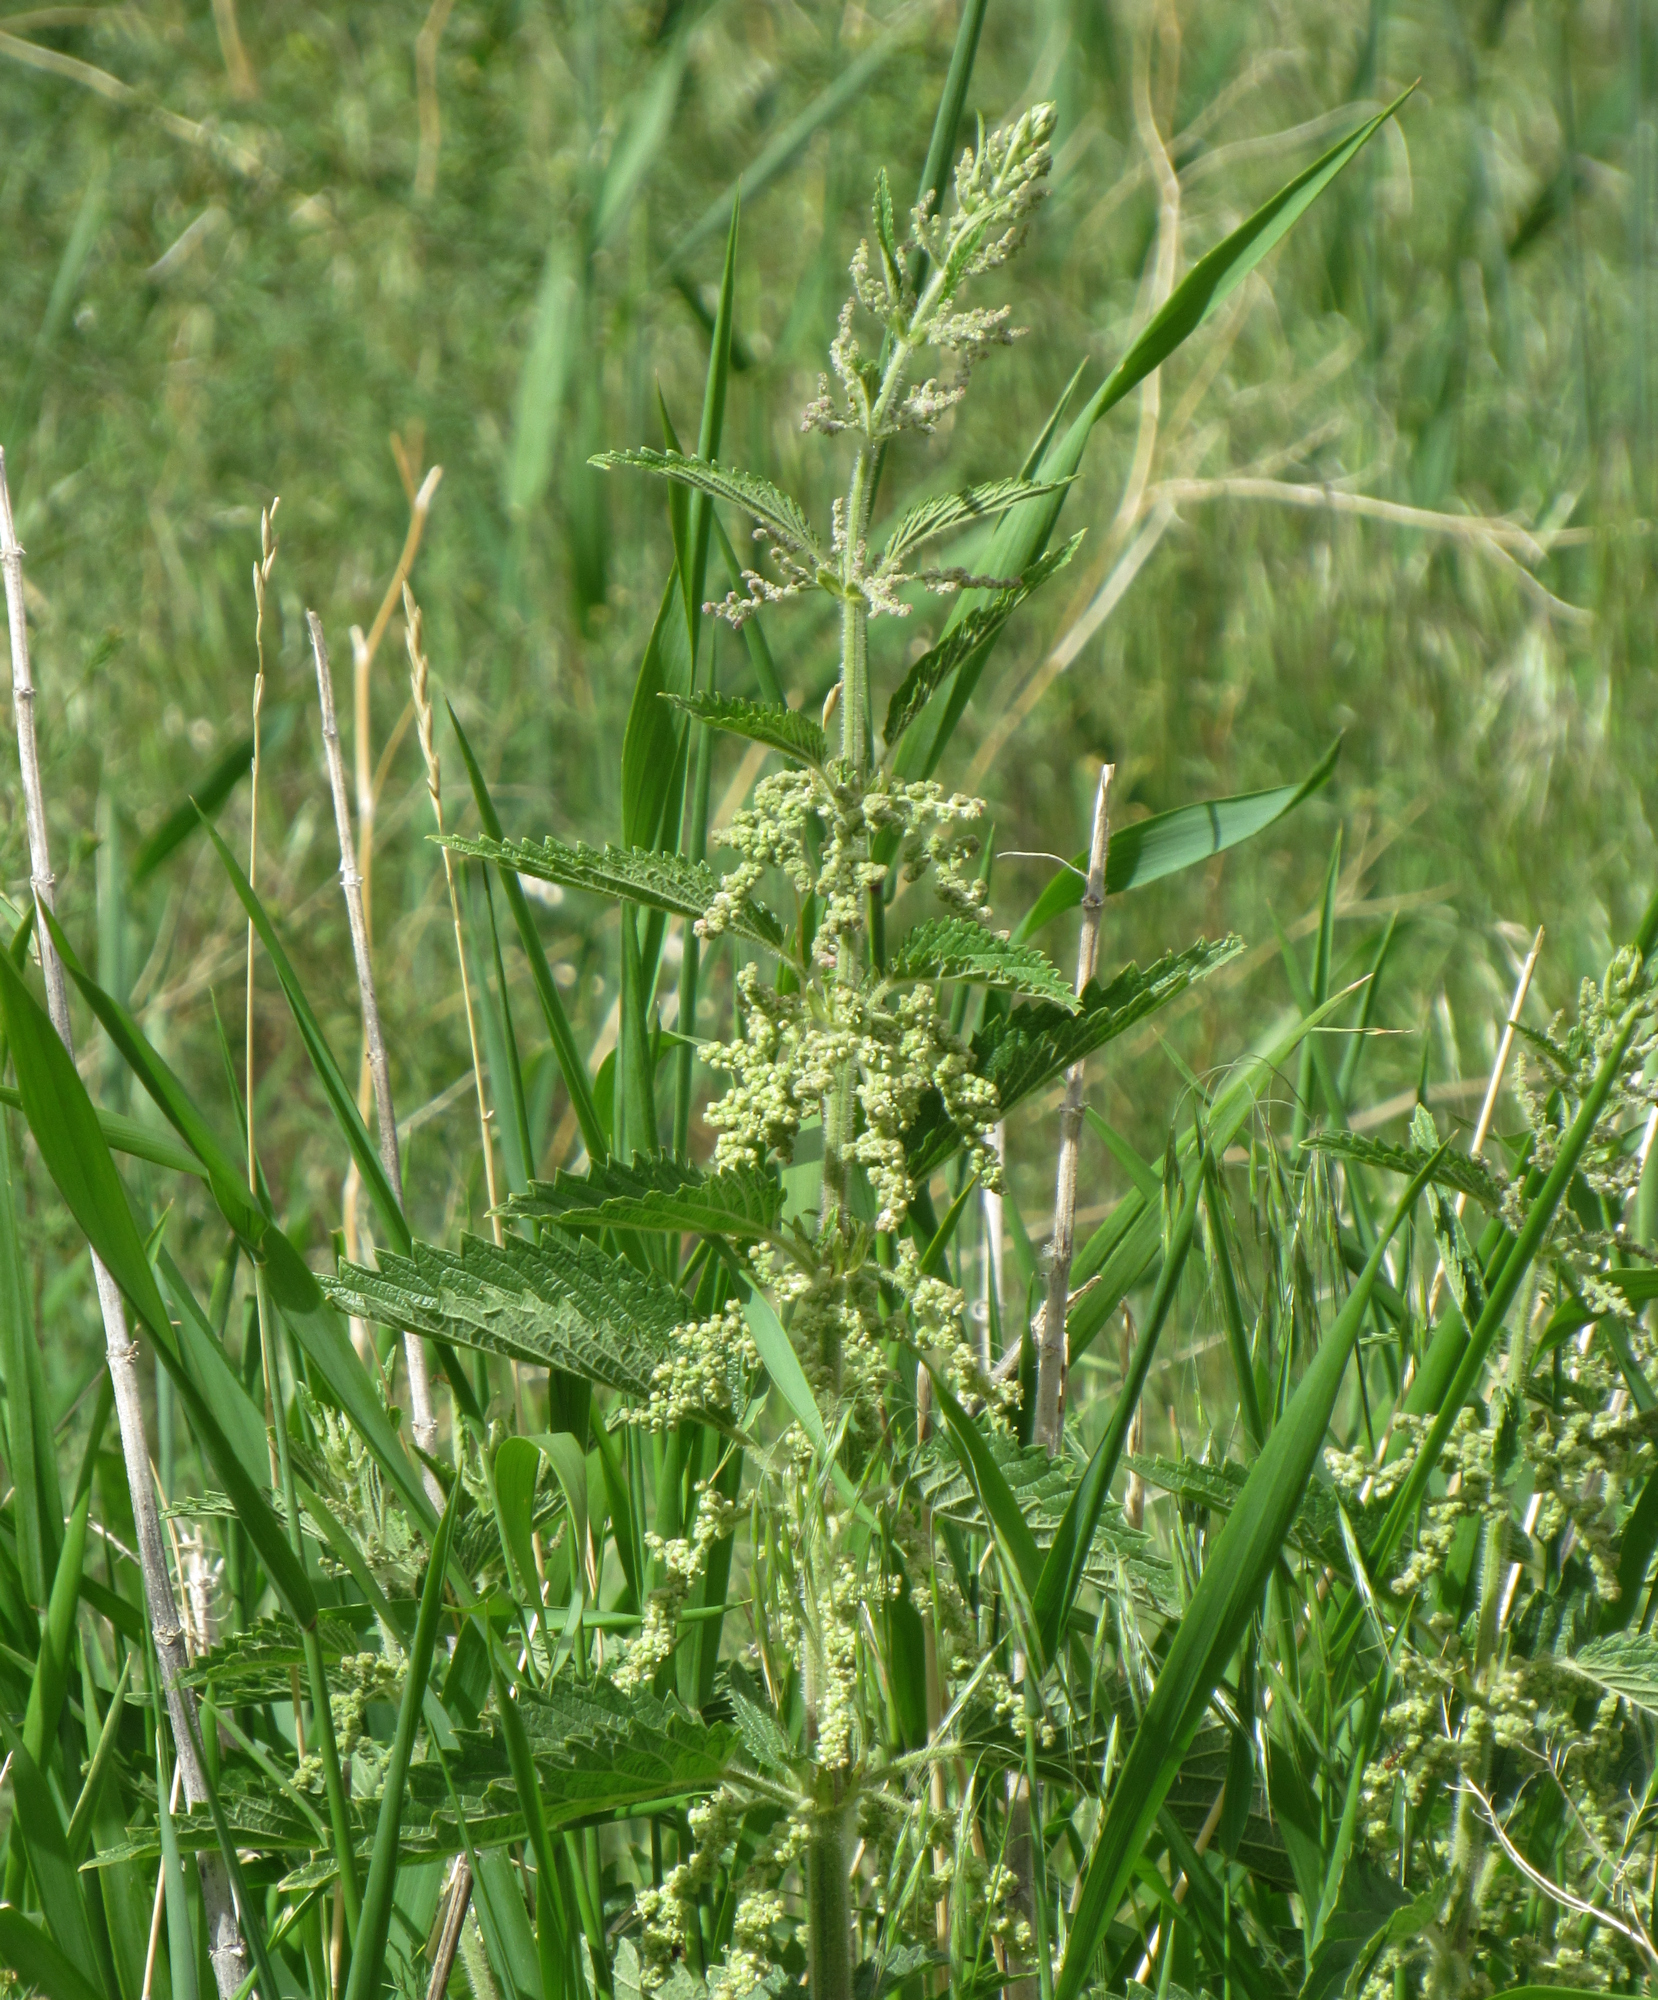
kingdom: Plantae
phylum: Tracheophyta
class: Magnoliopsida
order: Rosales
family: Urticaceae
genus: Urtica
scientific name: Urtica gracilis
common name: Slender stinging nettle
